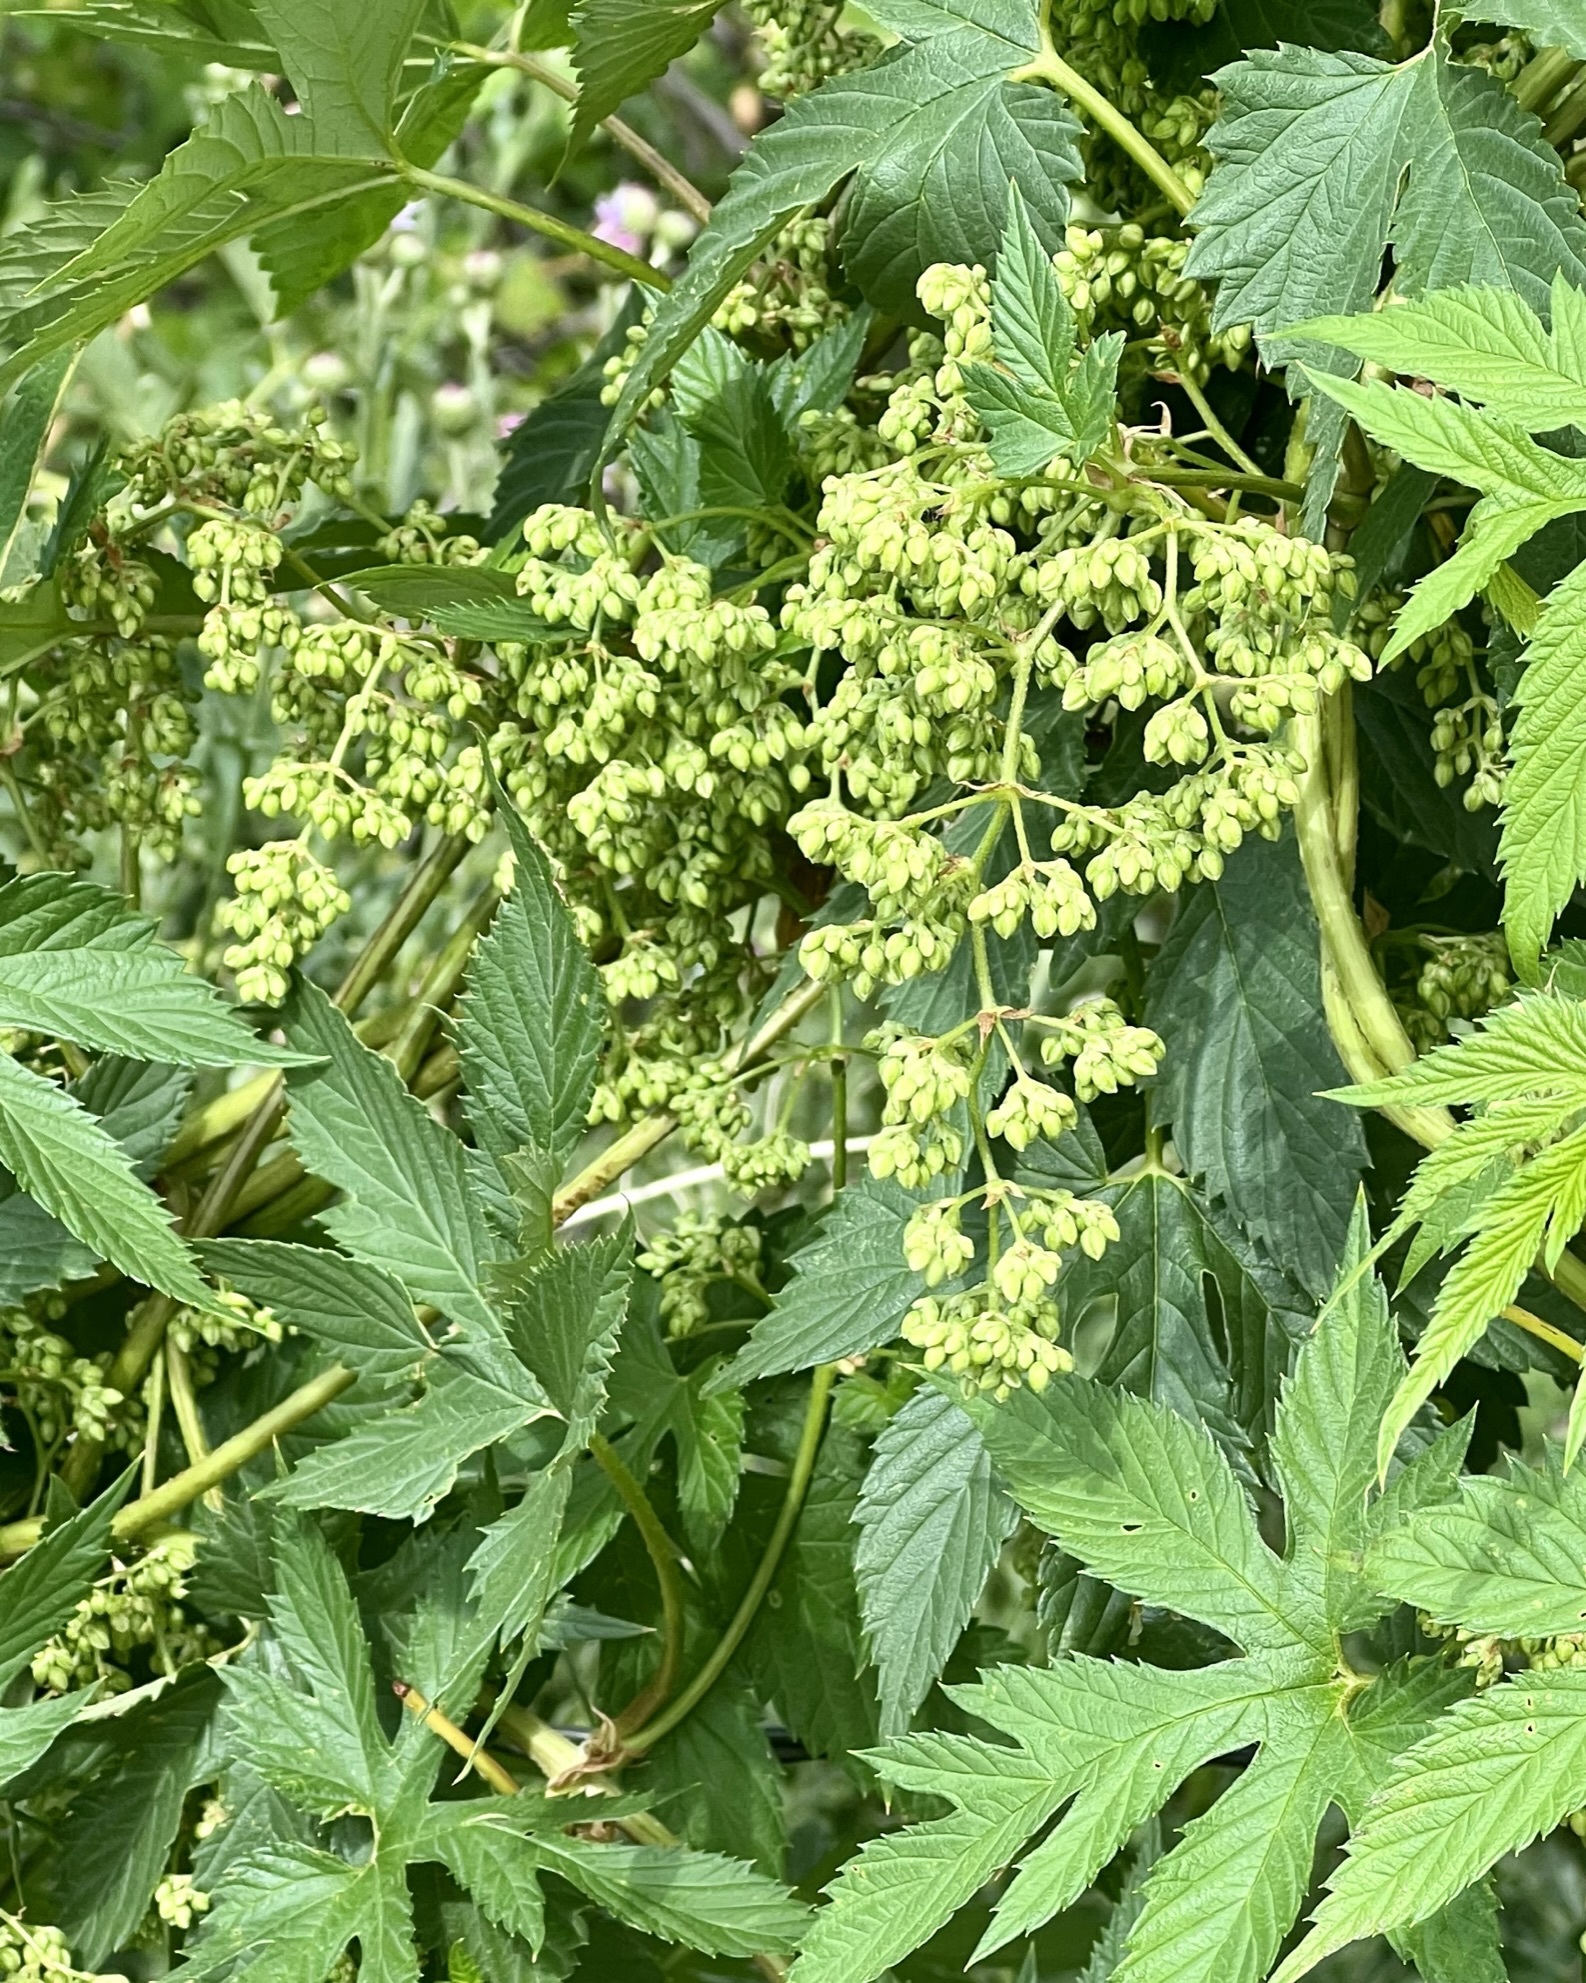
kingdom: Plantae
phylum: Tracheophyta
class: Magnoliopsida
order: Rosales
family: Cannabaceae
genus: Humulus
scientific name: Humulus lupulus
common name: Hop
